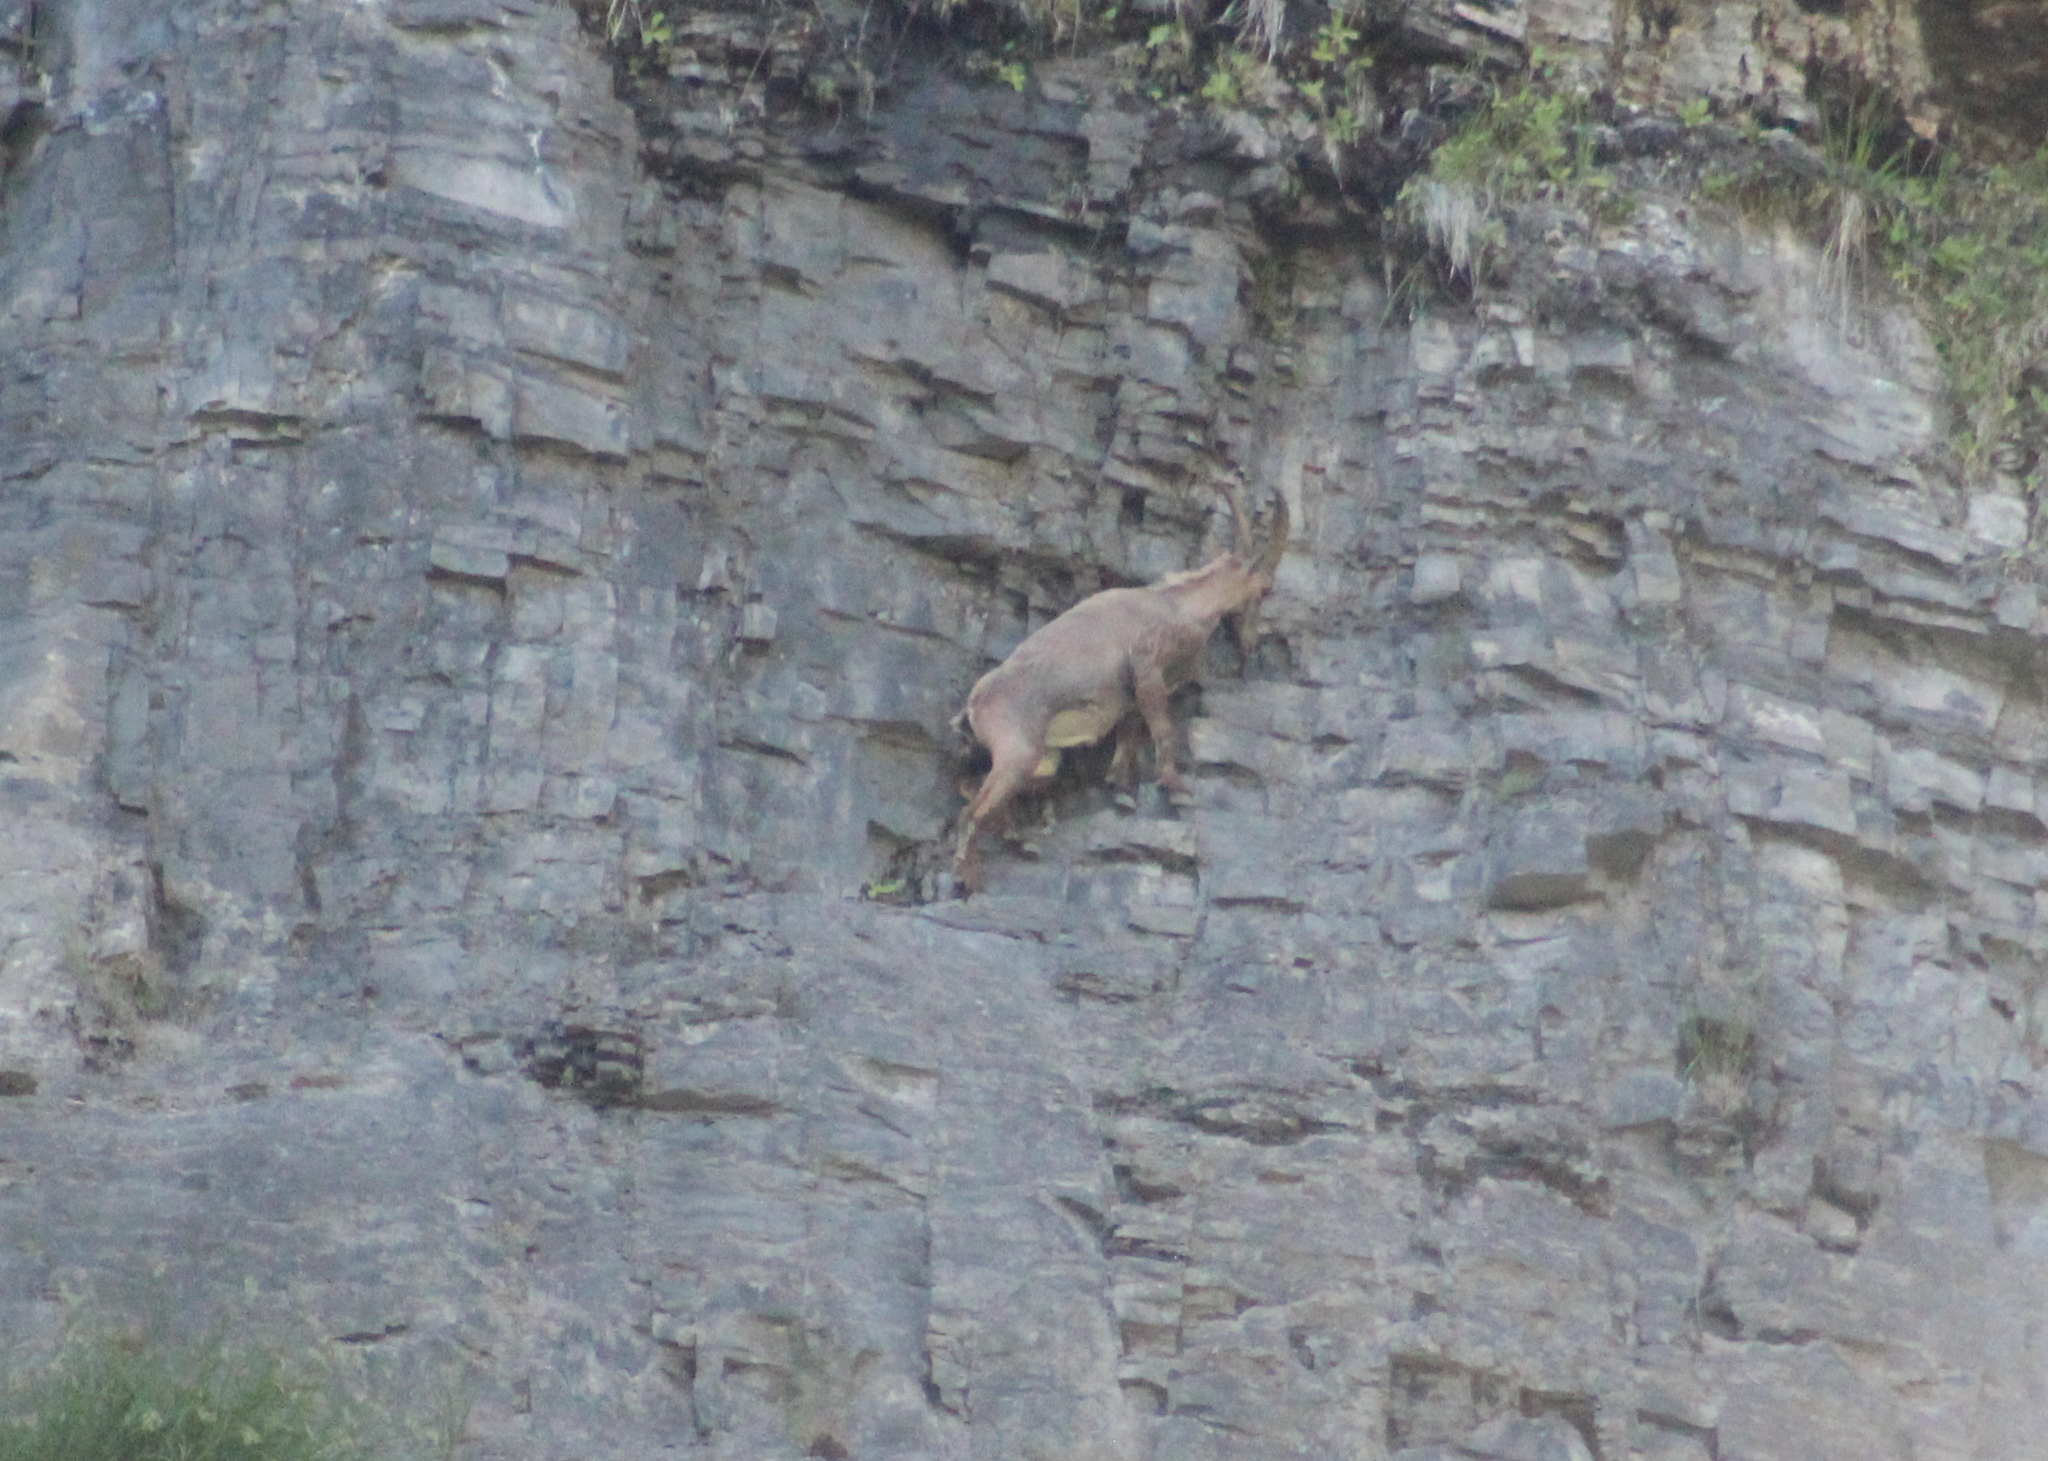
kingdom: Animalia
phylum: Chordata
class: Mammalia
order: Artiodactyla
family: Bovidae
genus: Capra
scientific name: Capra ibex
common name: Alpine ibex
